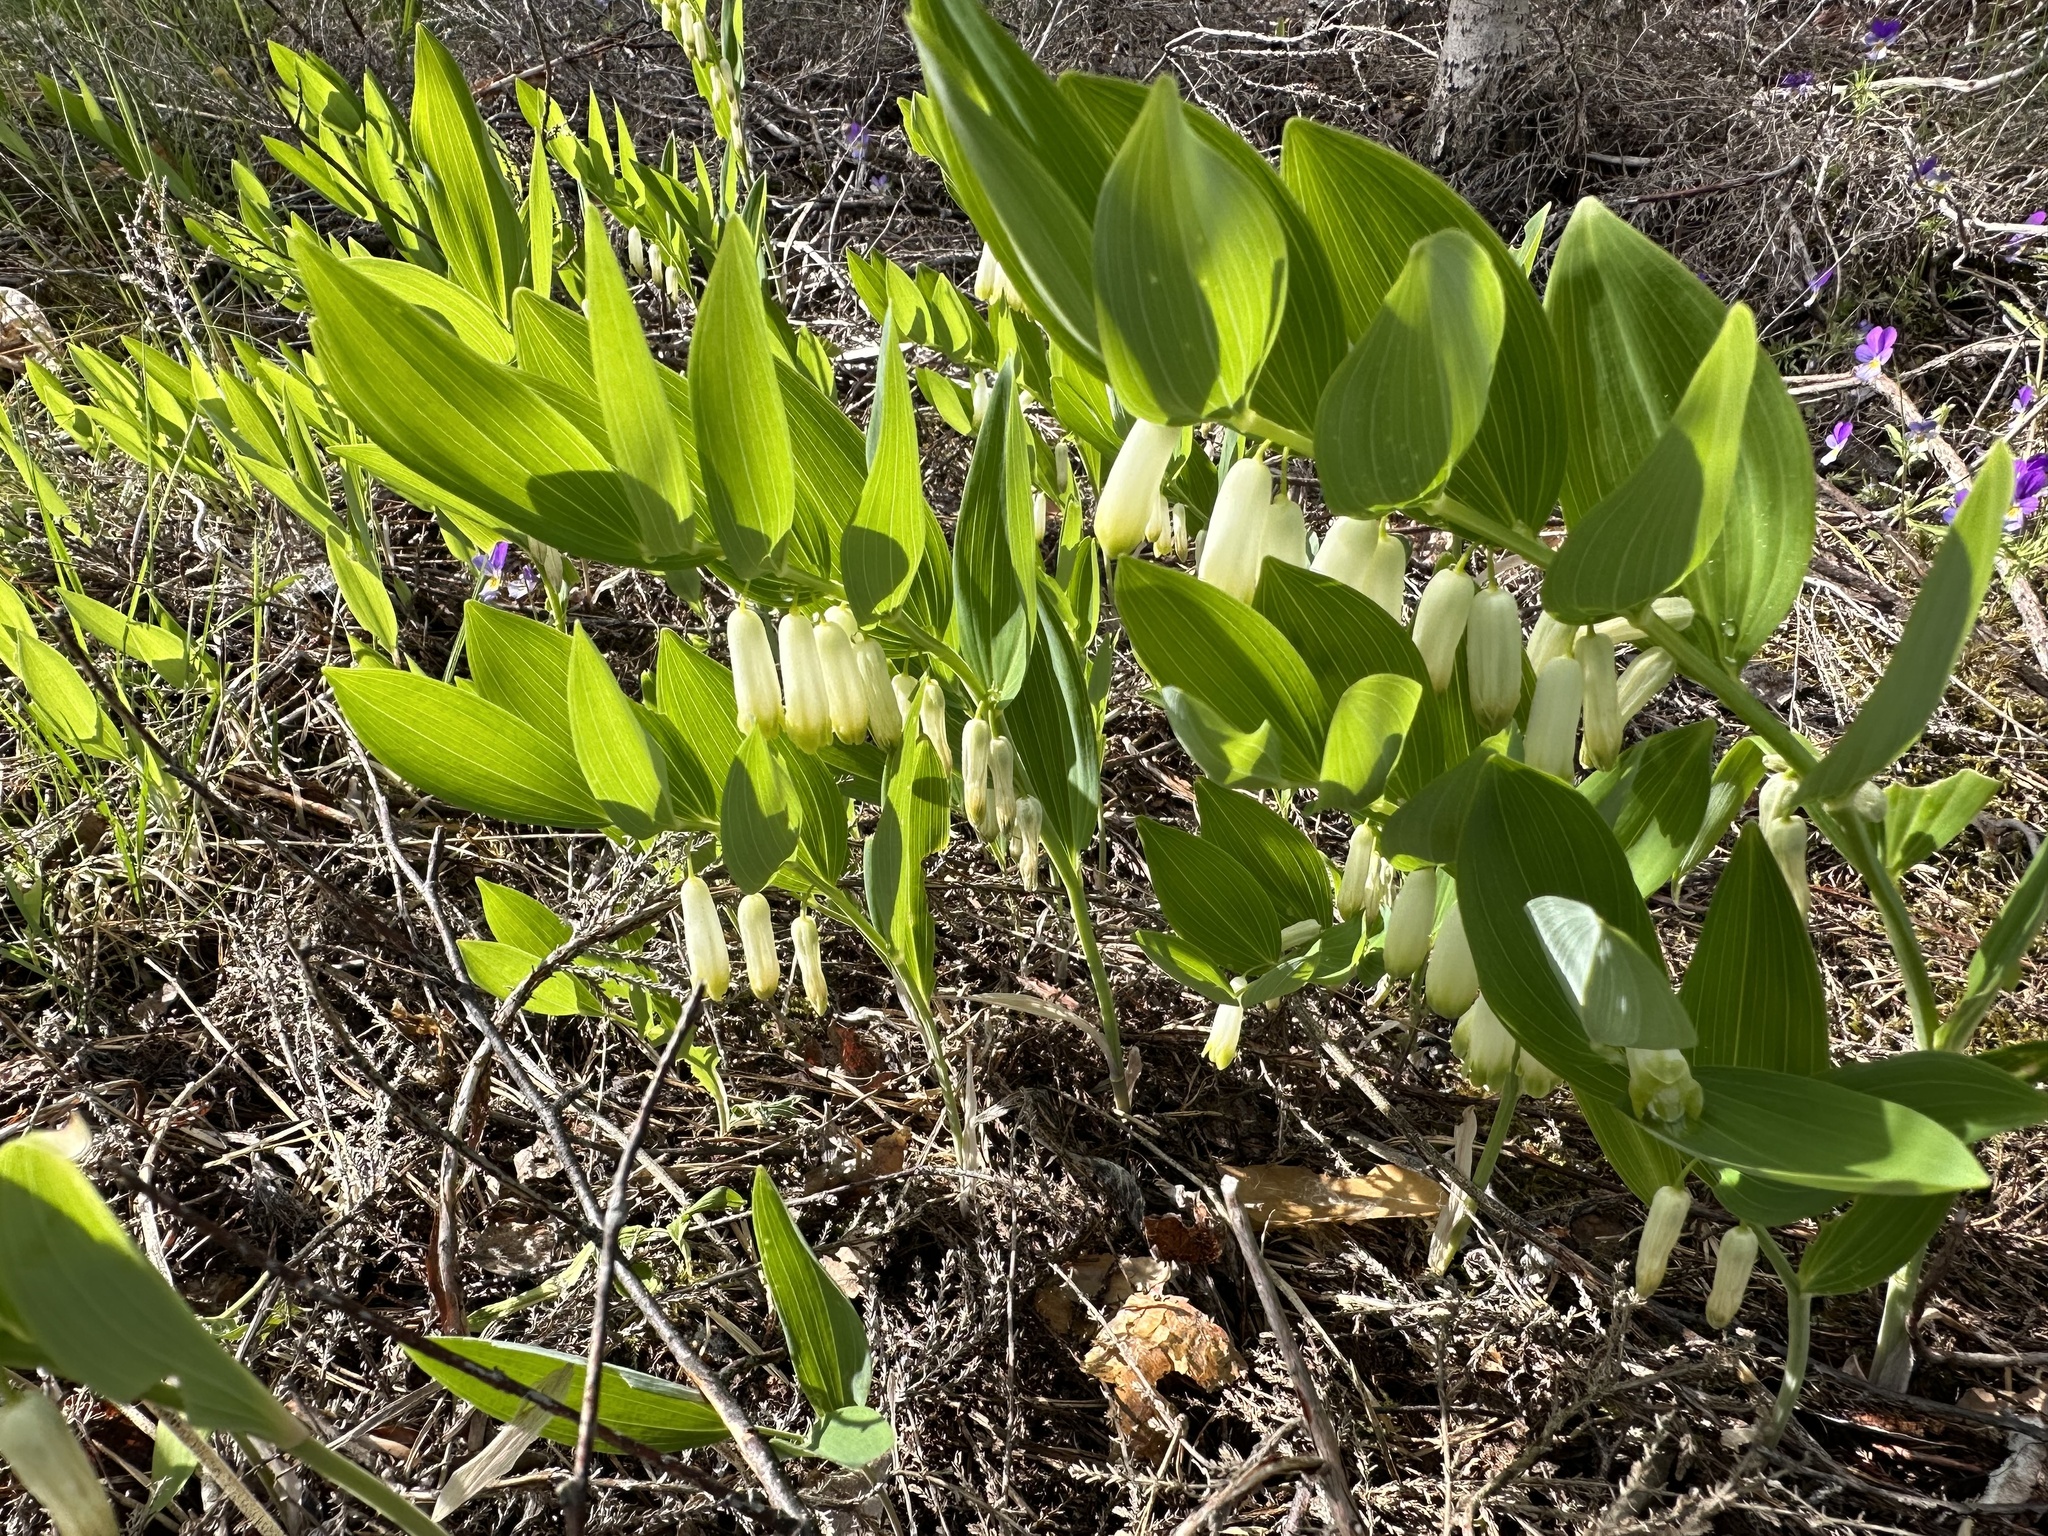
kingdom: Plantae
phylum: Tracheophyta
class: Liliopsida
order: Asparagales
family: Asparagaceae
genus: Polygonatum
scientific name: Polygonatum odoratum
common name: Angular solomon's-seal
